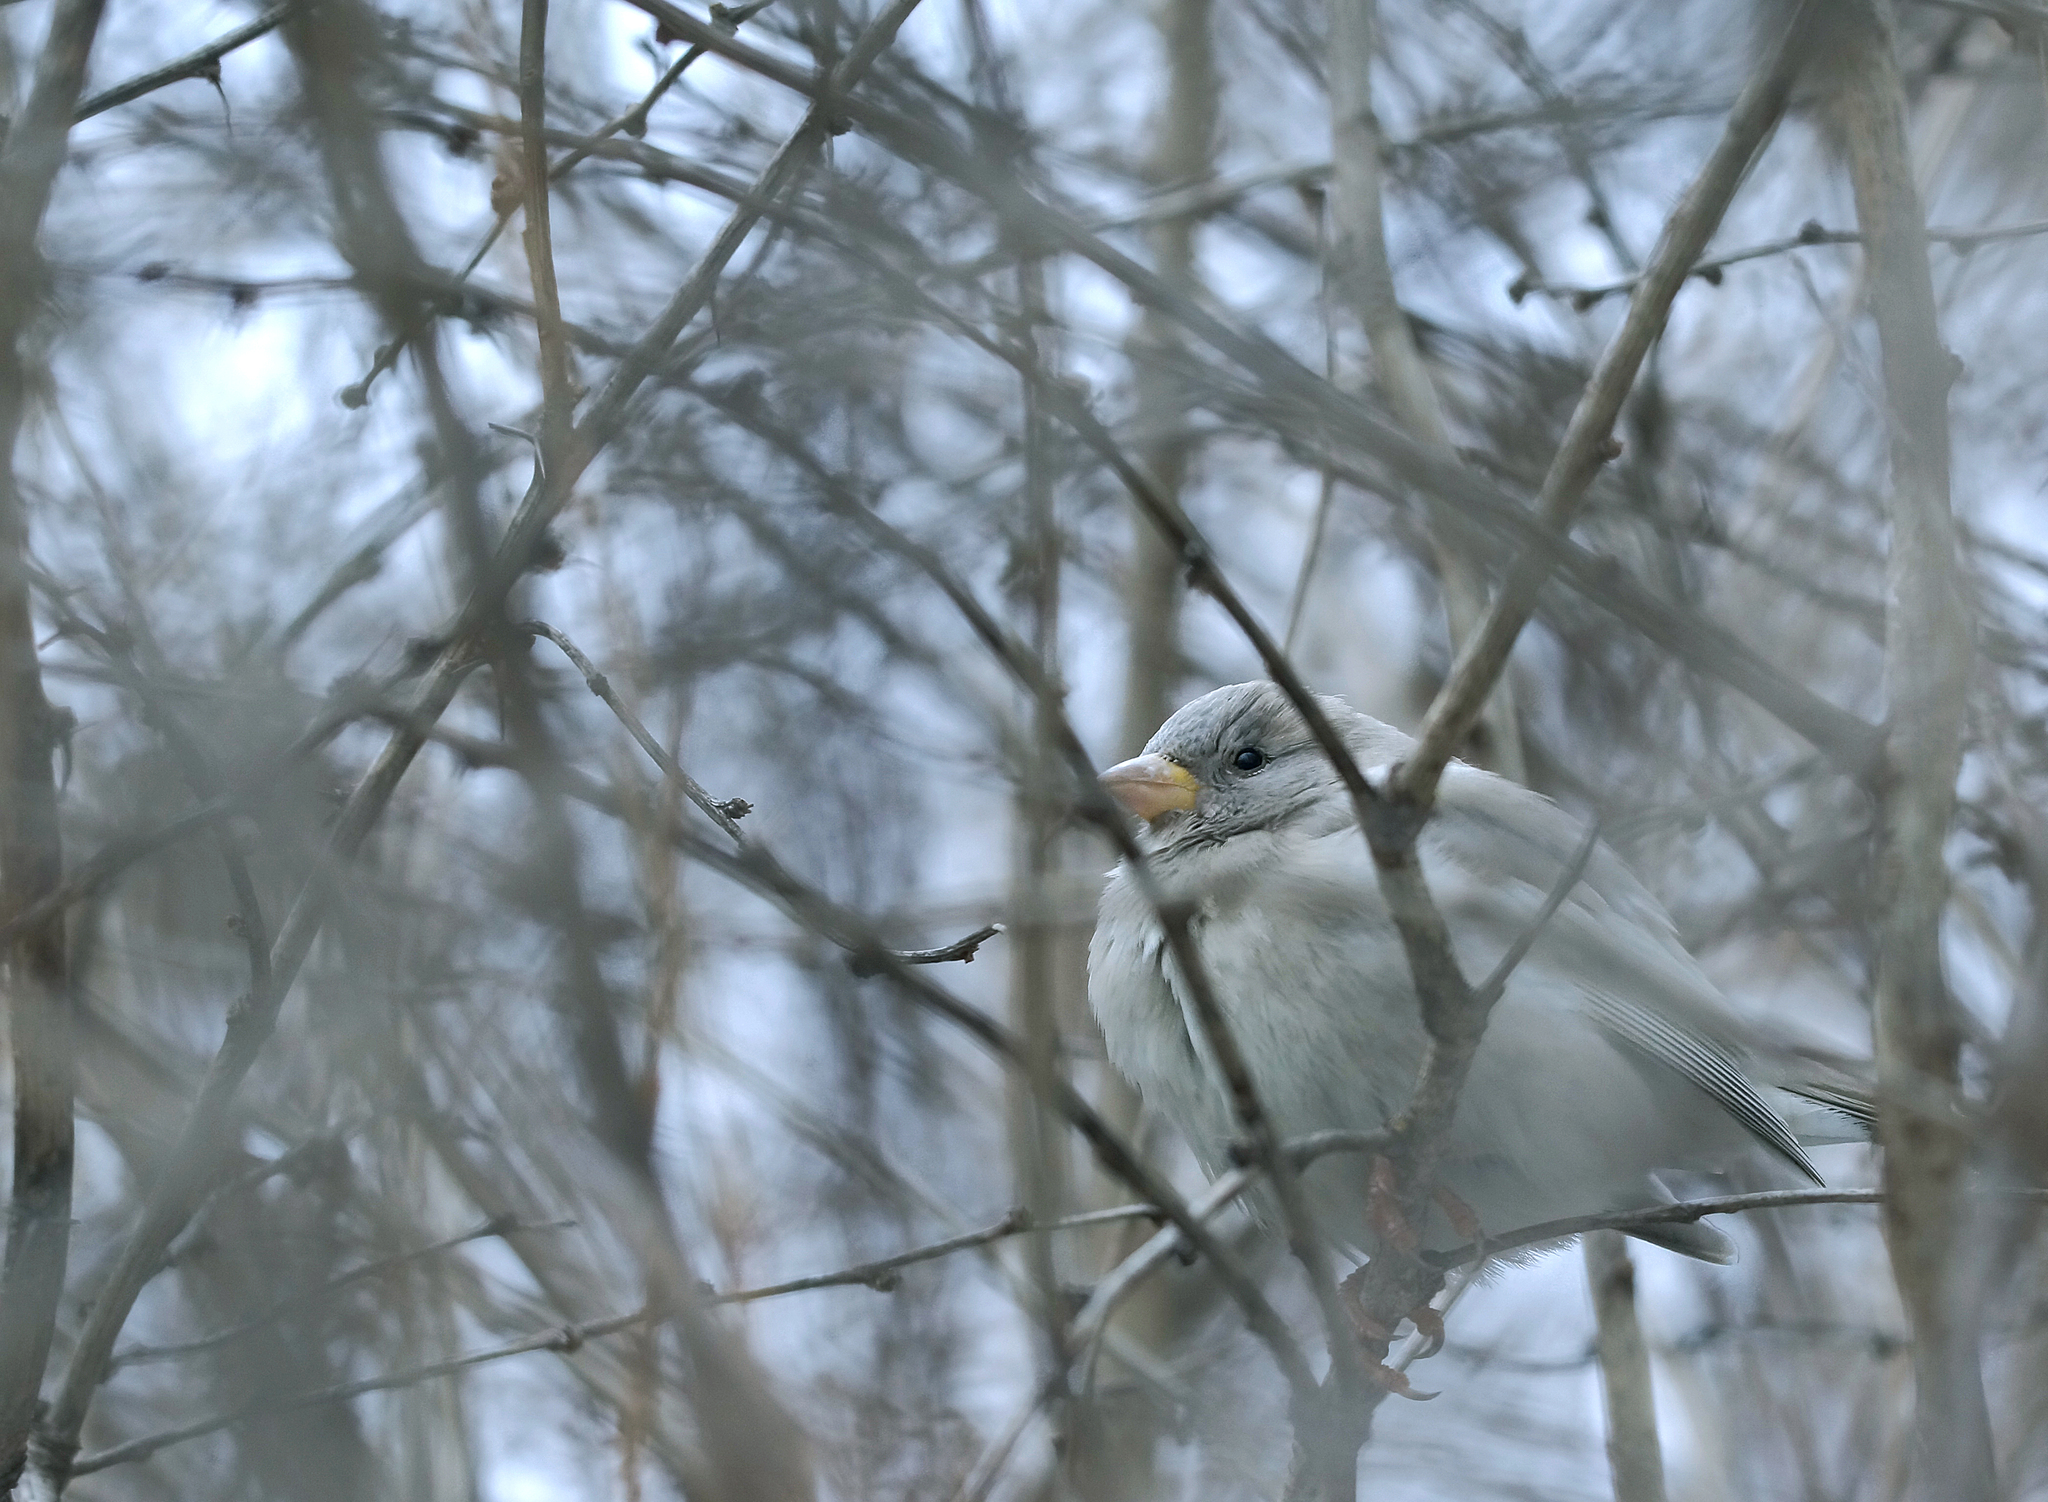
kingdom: Animalia
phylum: Chordata
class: Aves
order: Passeriformes
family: Passeridae
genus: Passer
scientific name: Passer domesticus
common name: House sparrow
